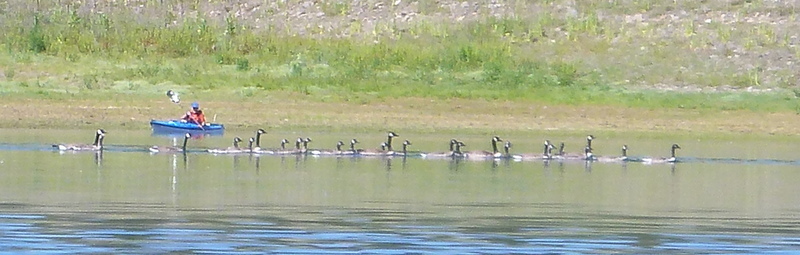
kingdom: Animalia
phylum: Chordata
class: Aves
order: Anseriformes
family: Anatidae
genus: Branta
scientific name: Branta canadensis
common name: Canada goose
